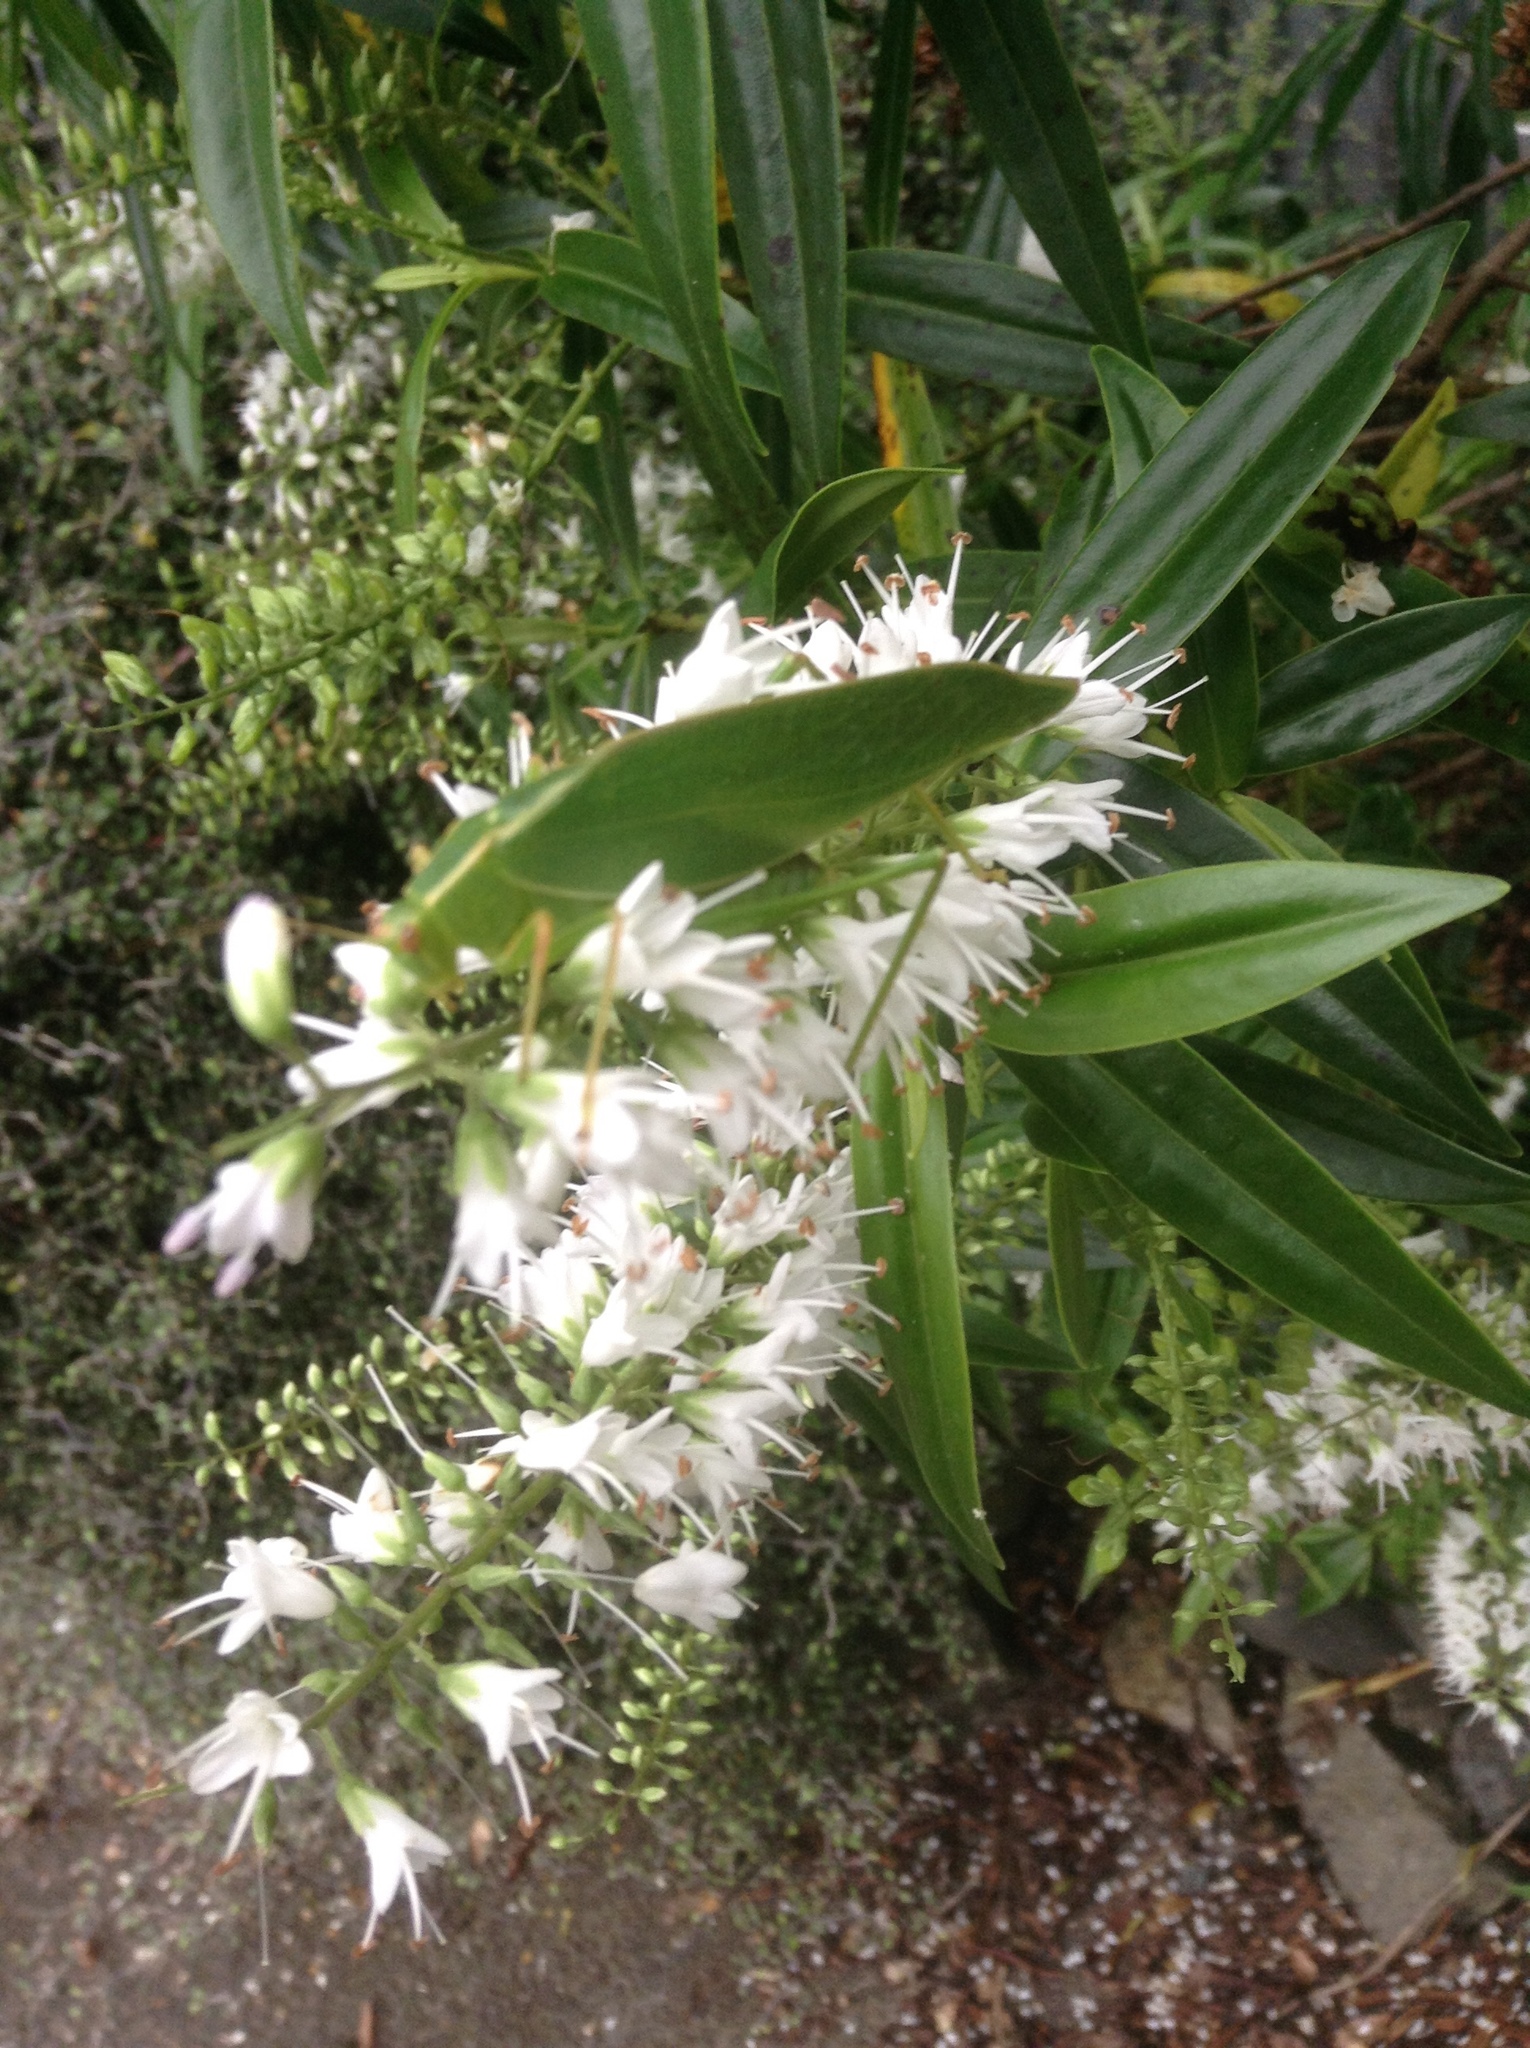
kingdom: Animalia
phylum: Arthropoda
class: Insecta
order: Orthoptera
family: Tettigoniidae
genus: Caedicia
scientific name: Caedicia simplex
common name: Common garden katydid
